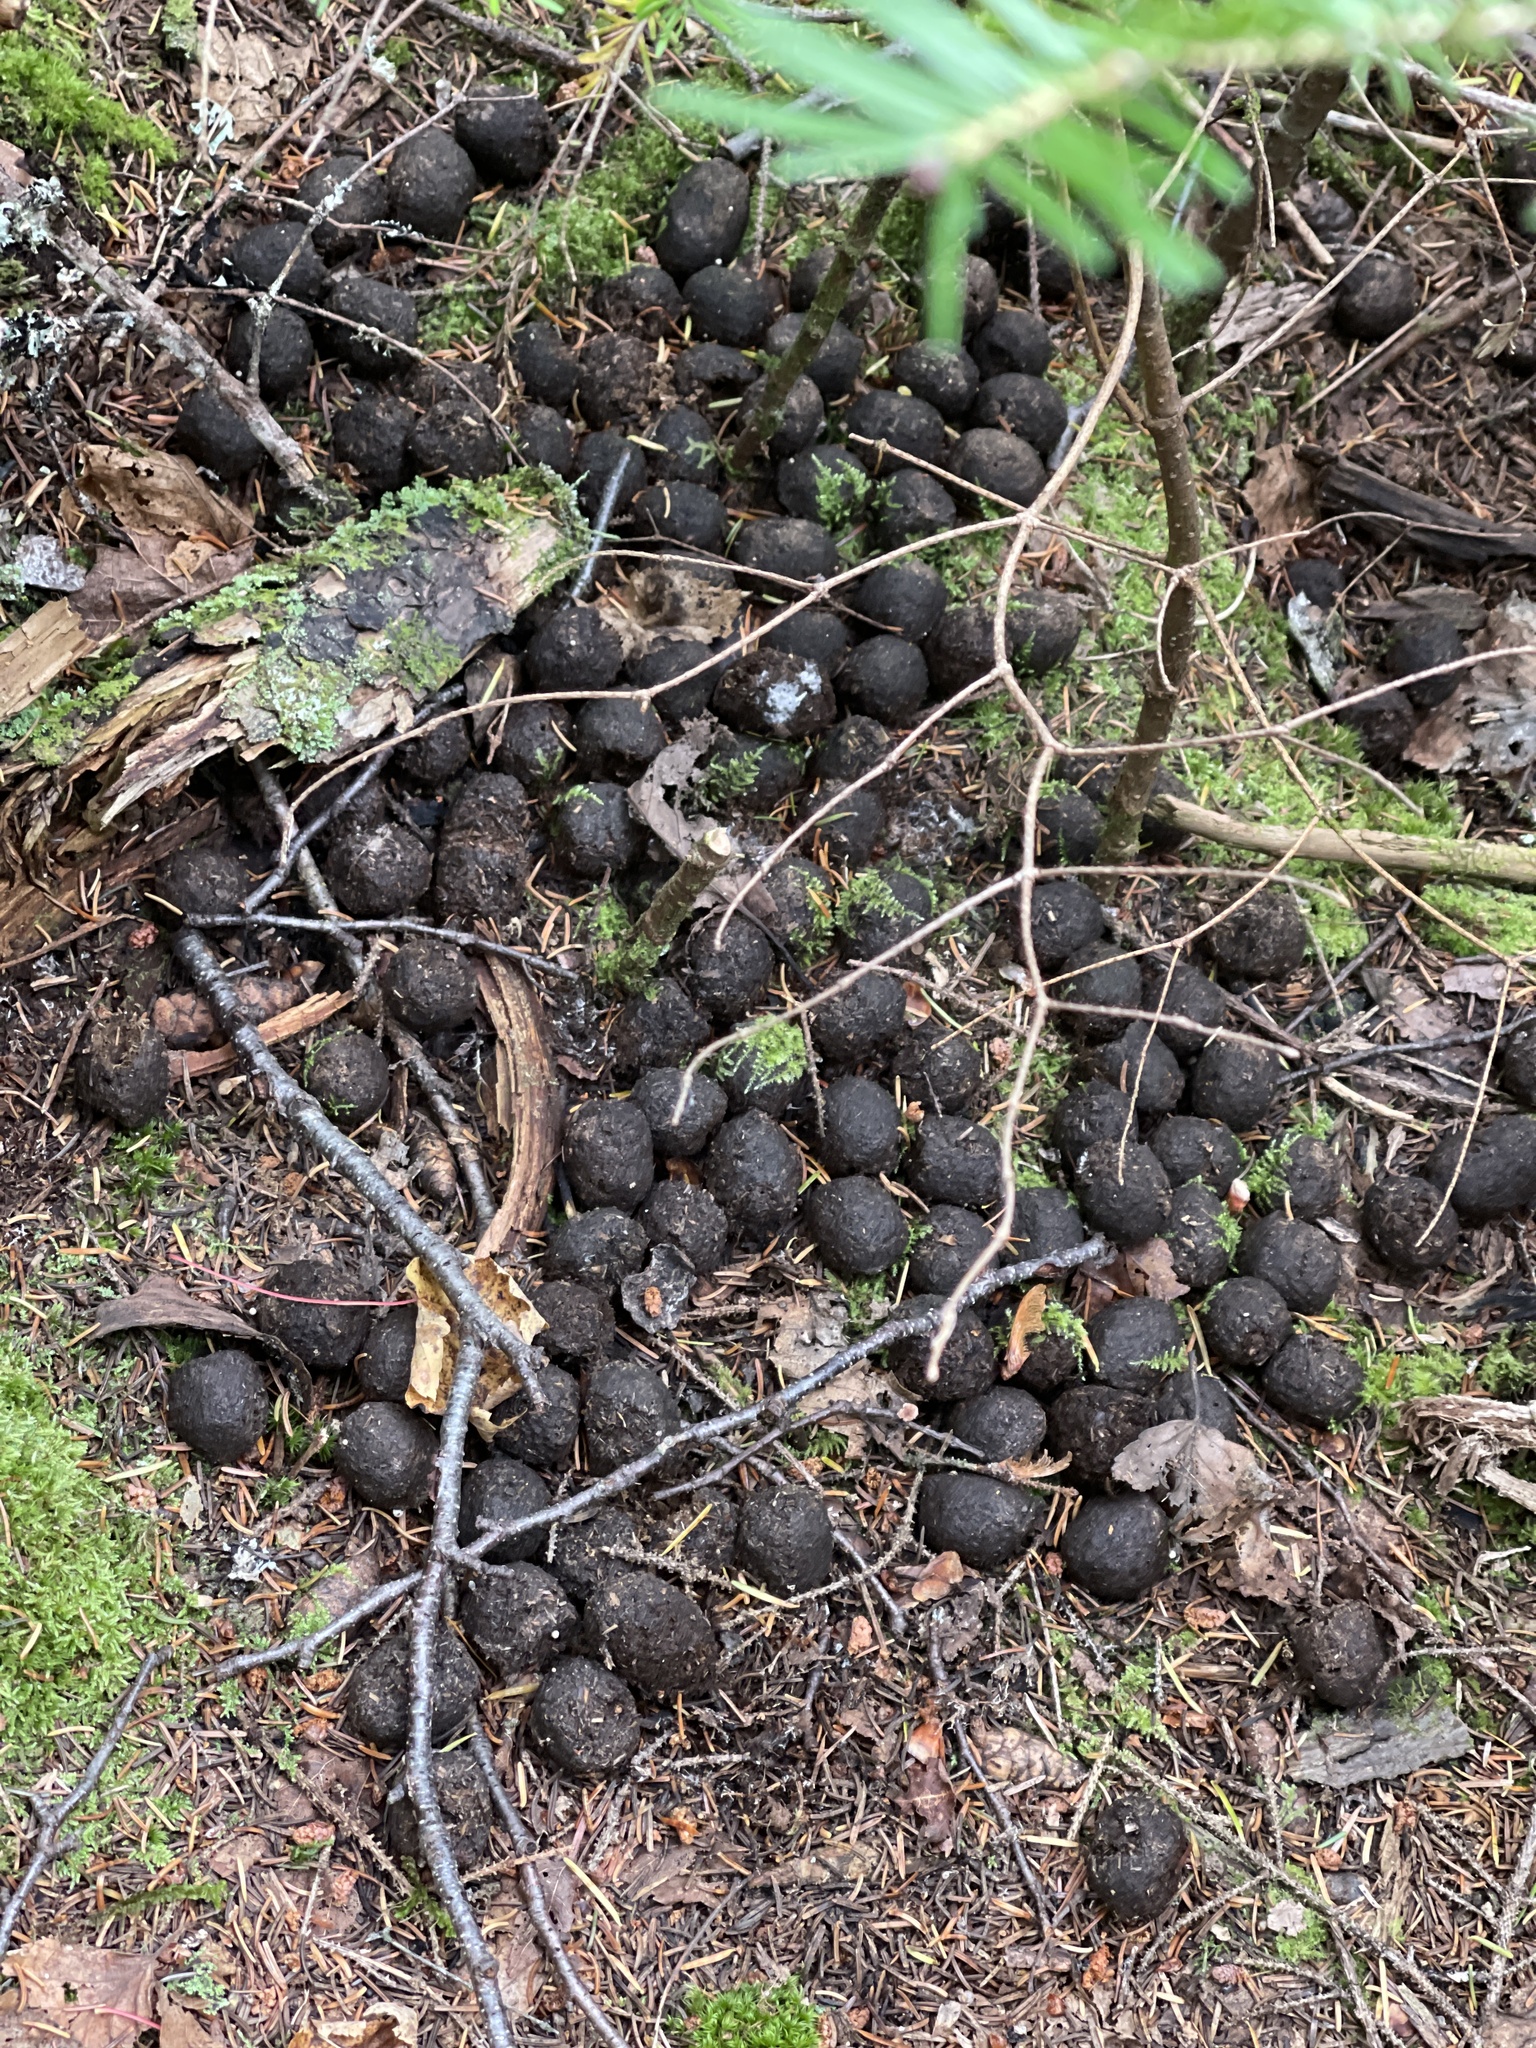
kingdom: Animalia
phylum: Chordata
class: Mammalia
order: Artiodactyla
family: Cervidae
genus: Alces
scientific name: Alces alces
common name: Moose
